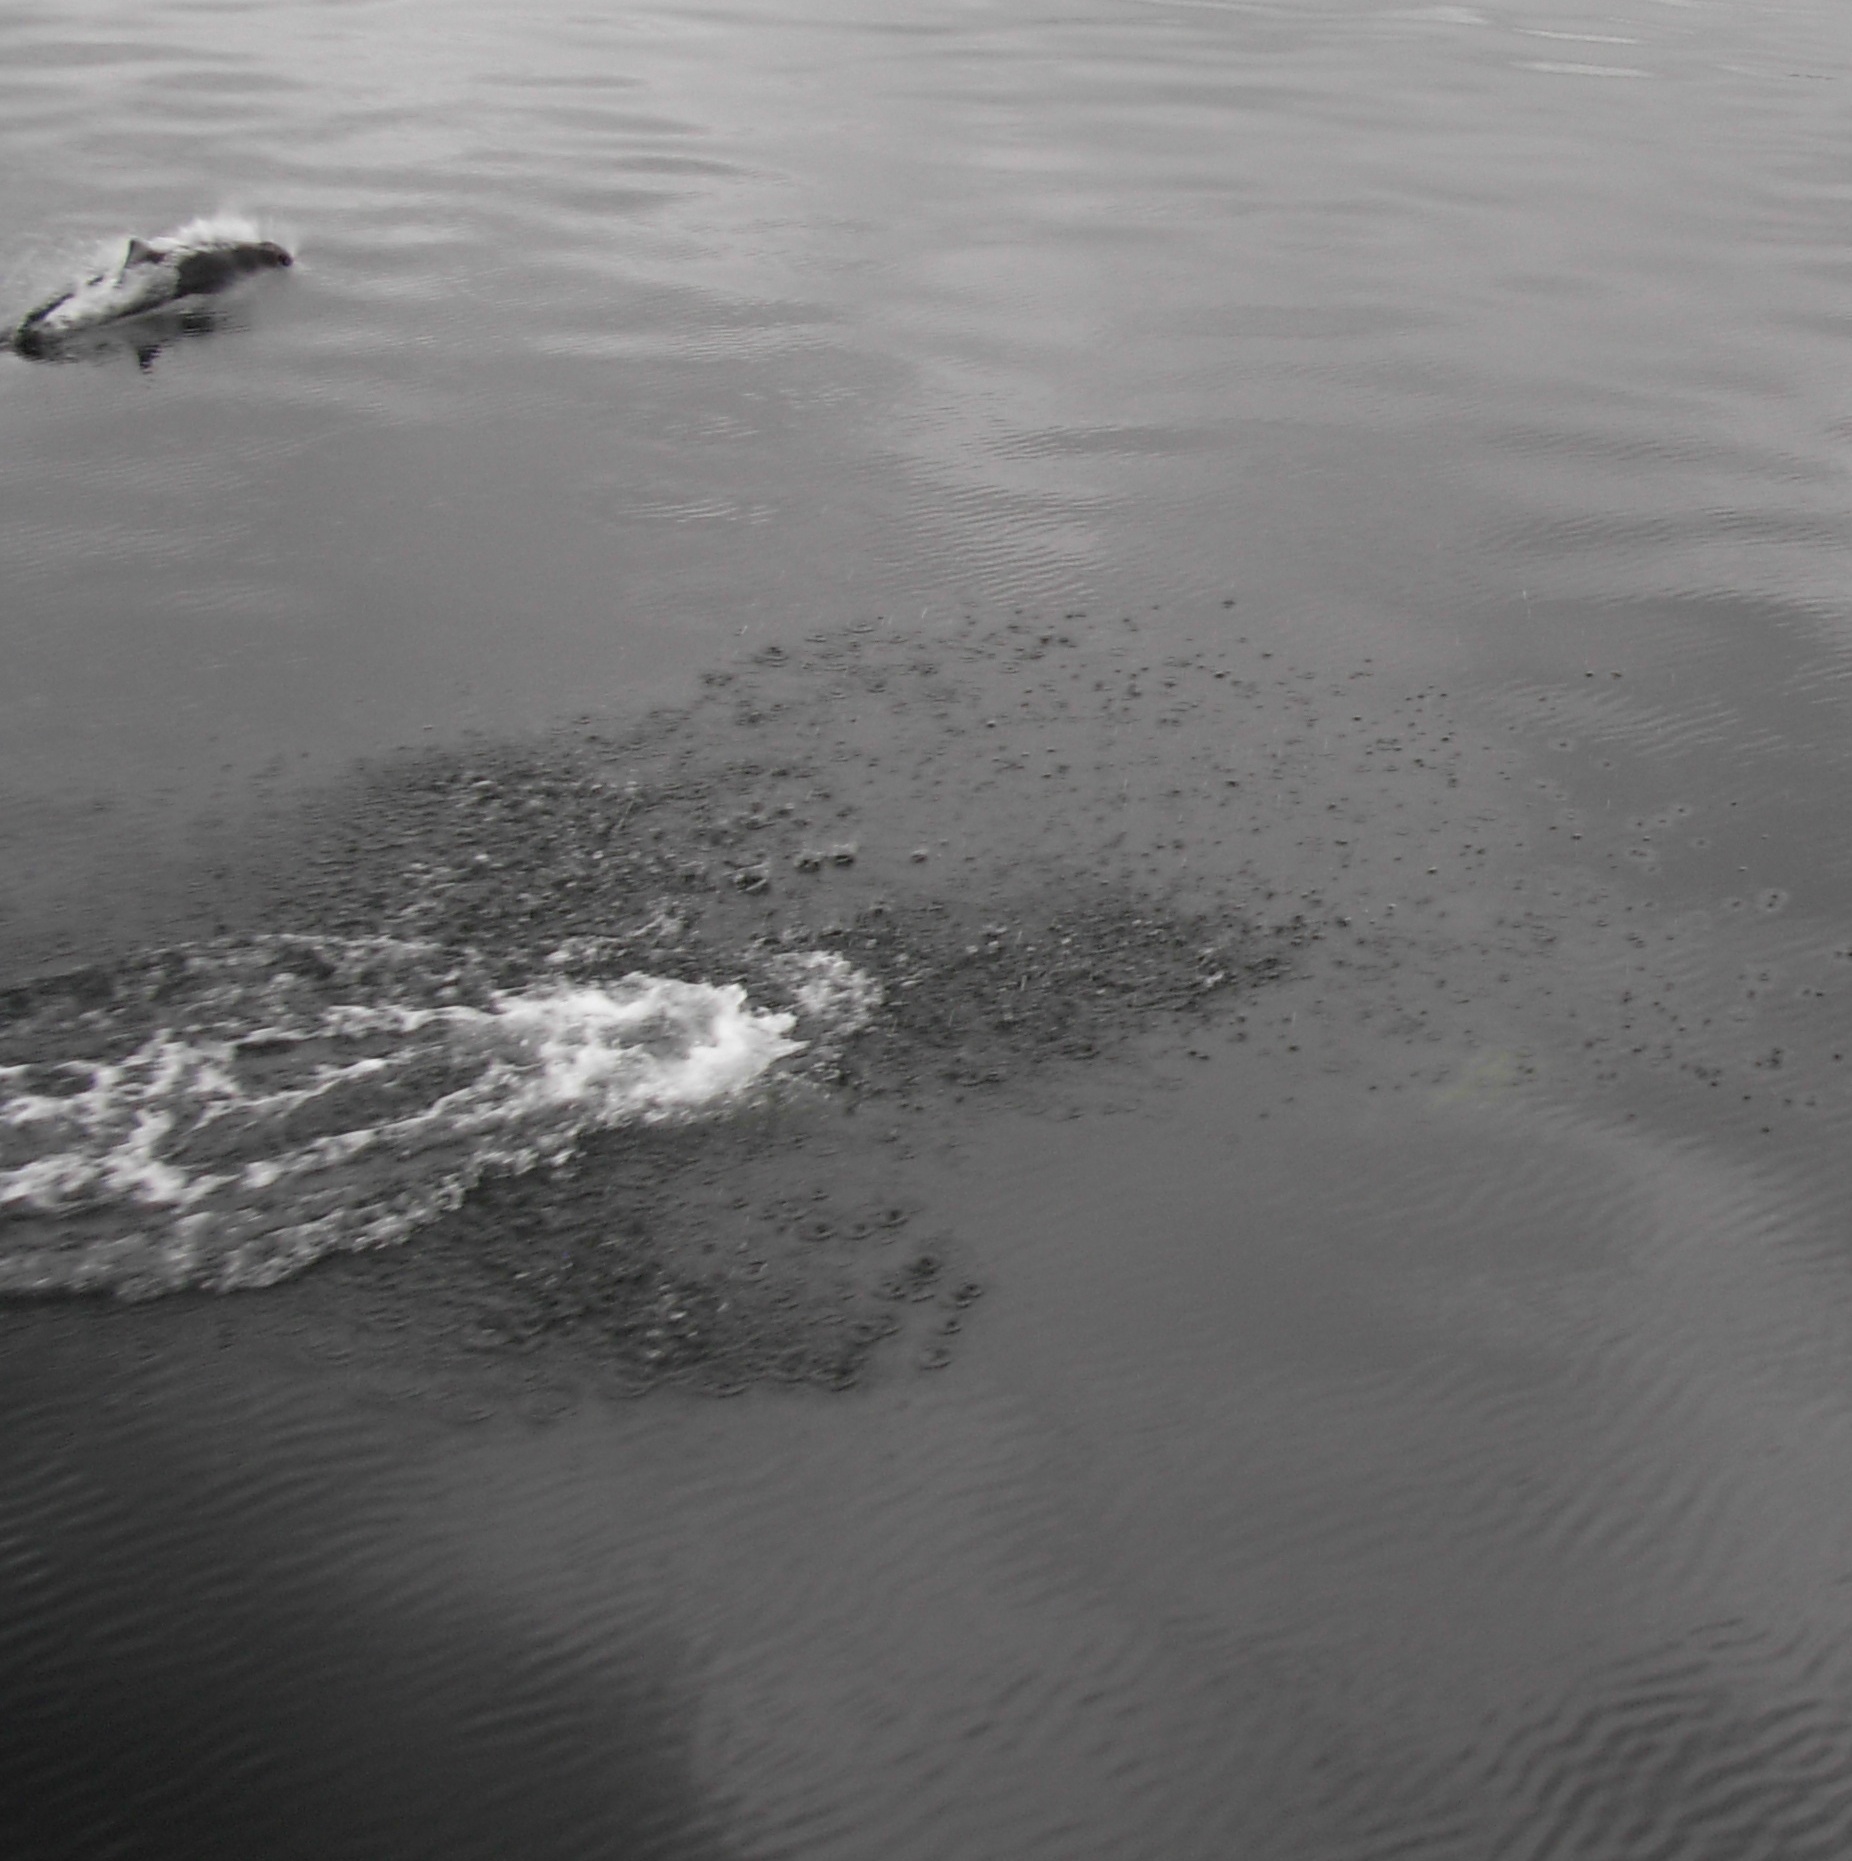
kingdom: Animalia
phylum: Chordata
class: Mammalia
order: Cetacea
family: Phocoenidae
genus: Phocoenoides
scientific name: Phocoenoides dalli
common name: Dall's porpoise
